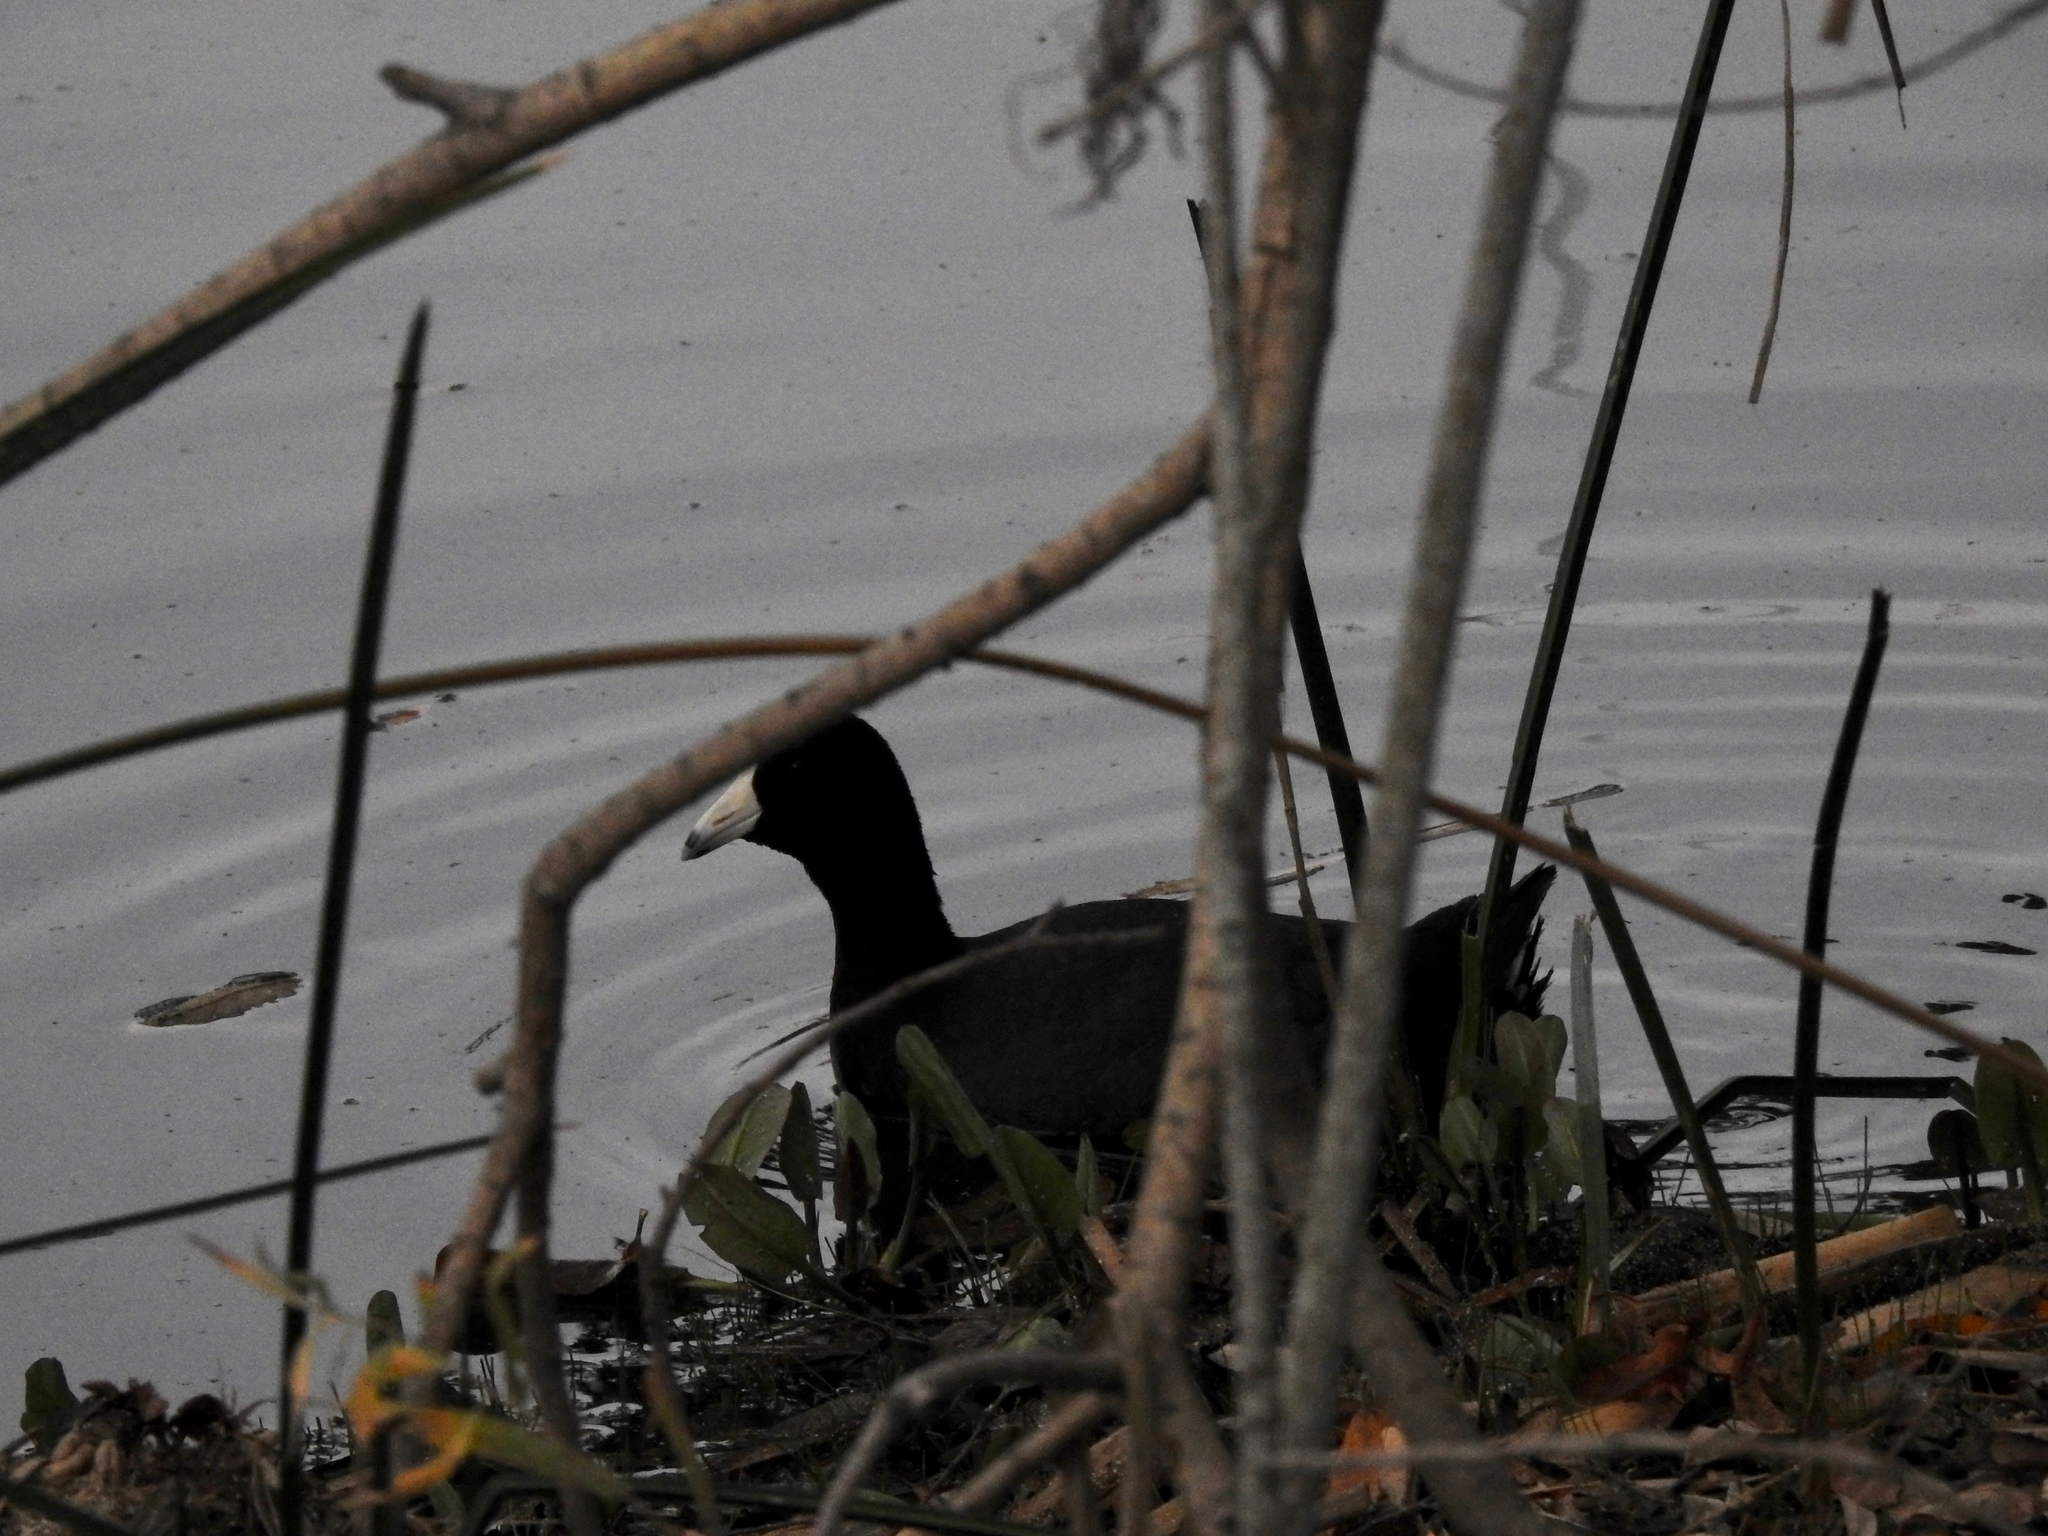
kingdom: Animalia
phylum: Chordata
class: Aves
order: Gruiformes
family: Rallidae
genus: Fulica
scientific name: Fulica americana
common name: American coot
